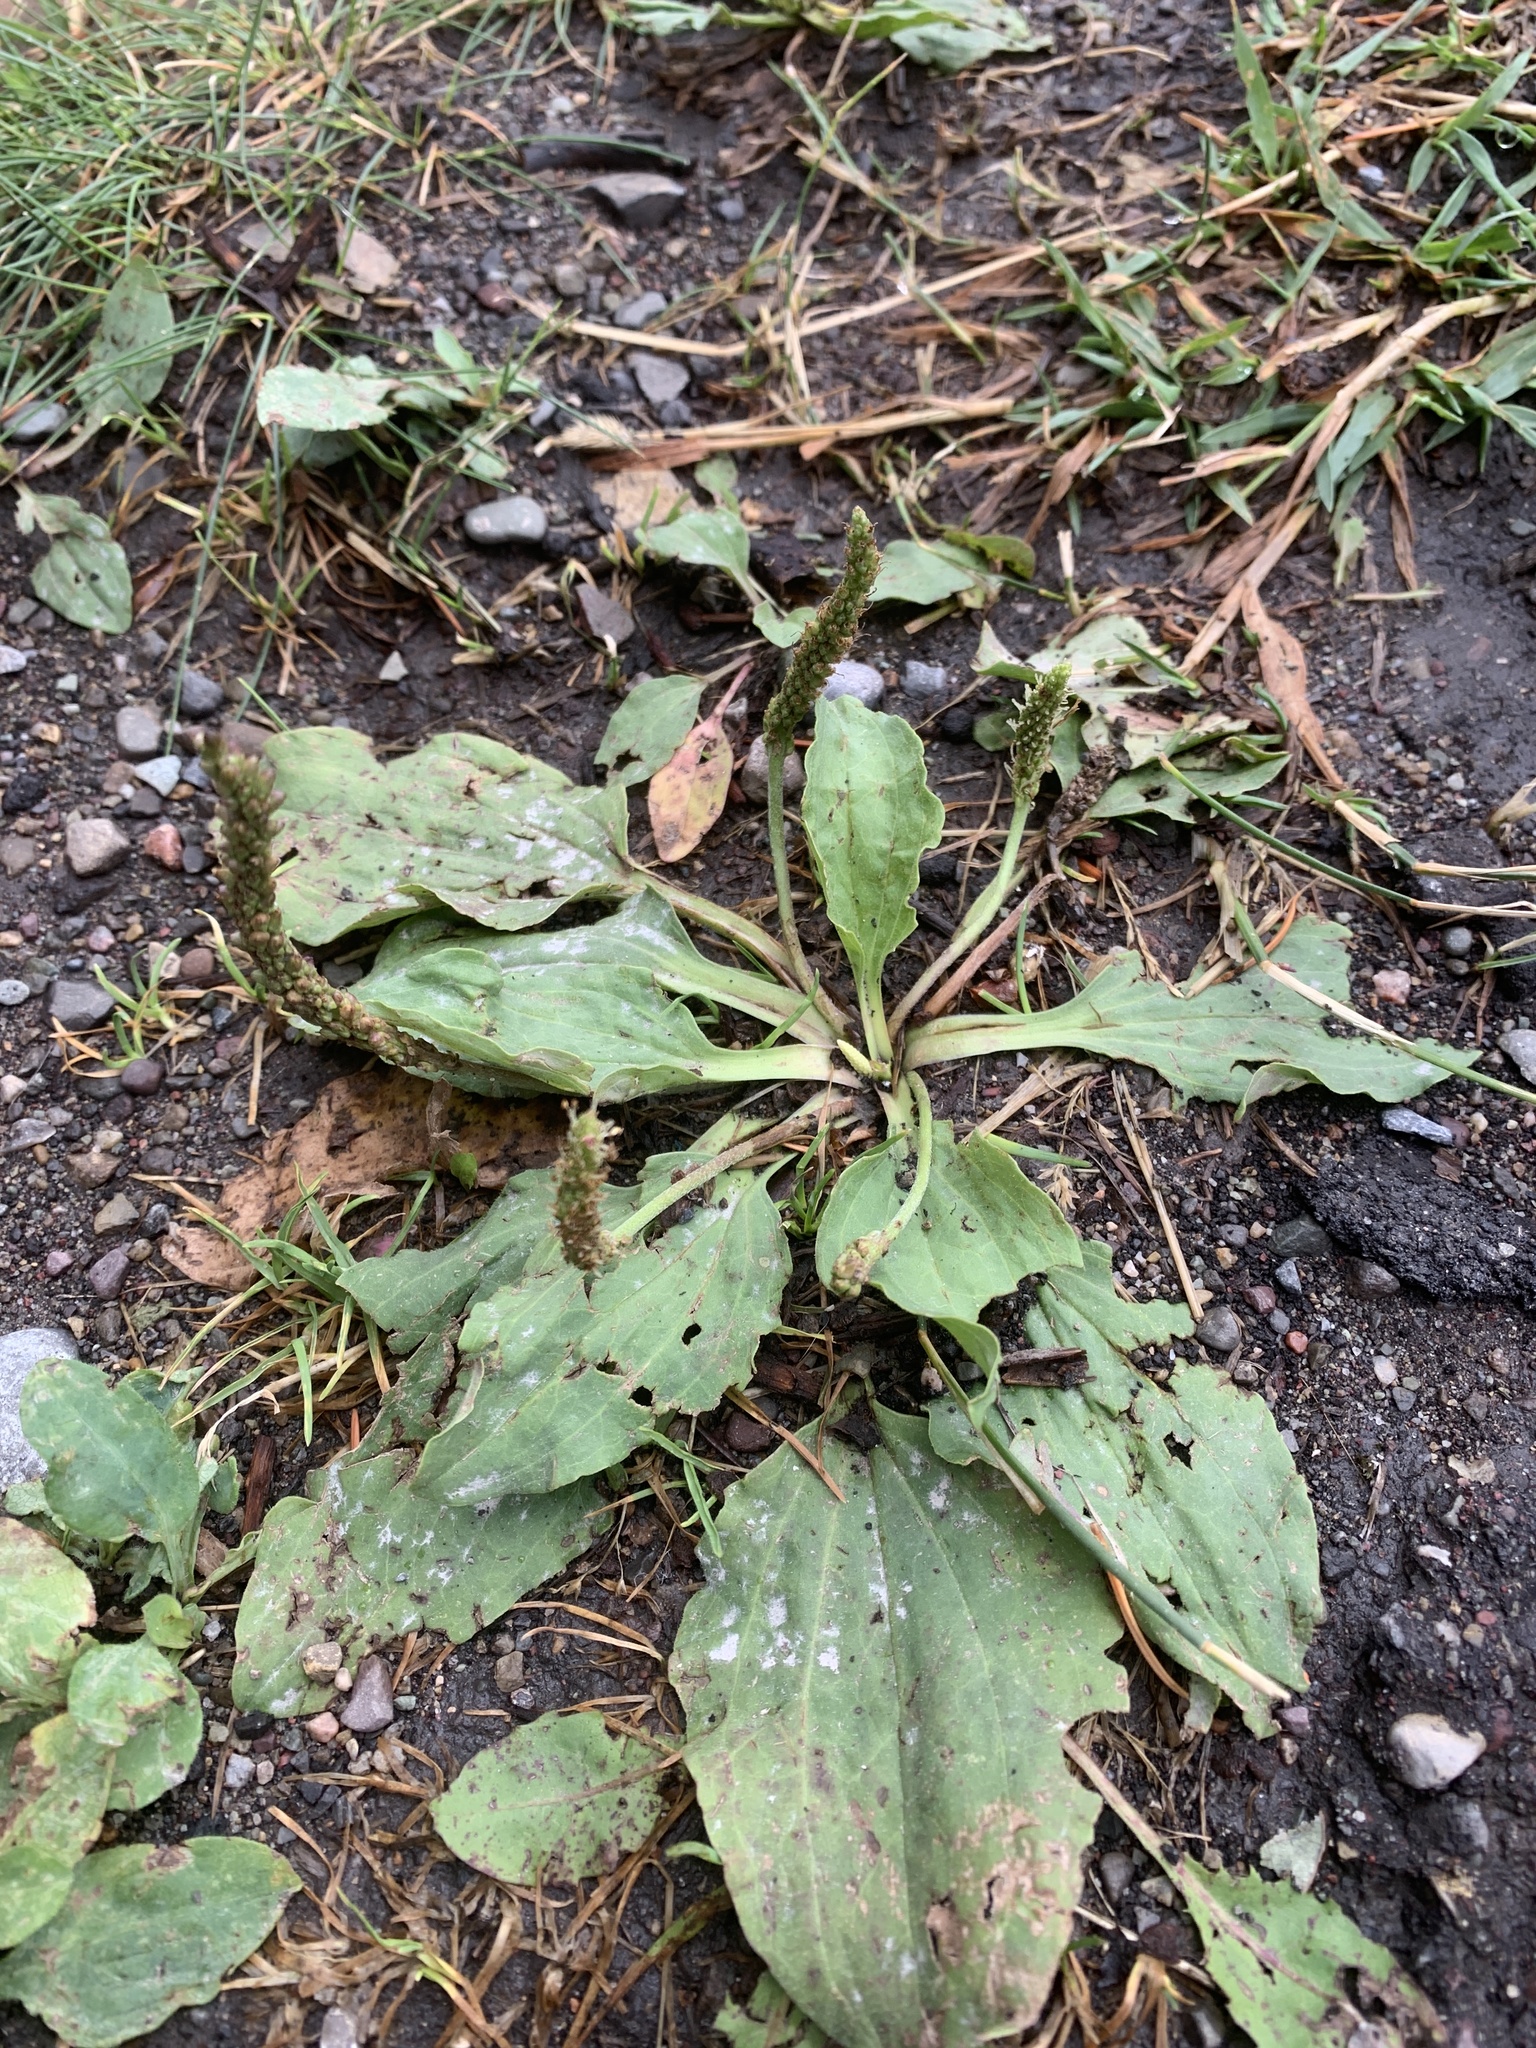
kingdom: Plantae
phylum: Tracheophyta
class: Magnoliopsida
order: Lamiales
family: Plantaginaceae
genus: Plantago
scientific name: Plantago major
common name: Common plantain
